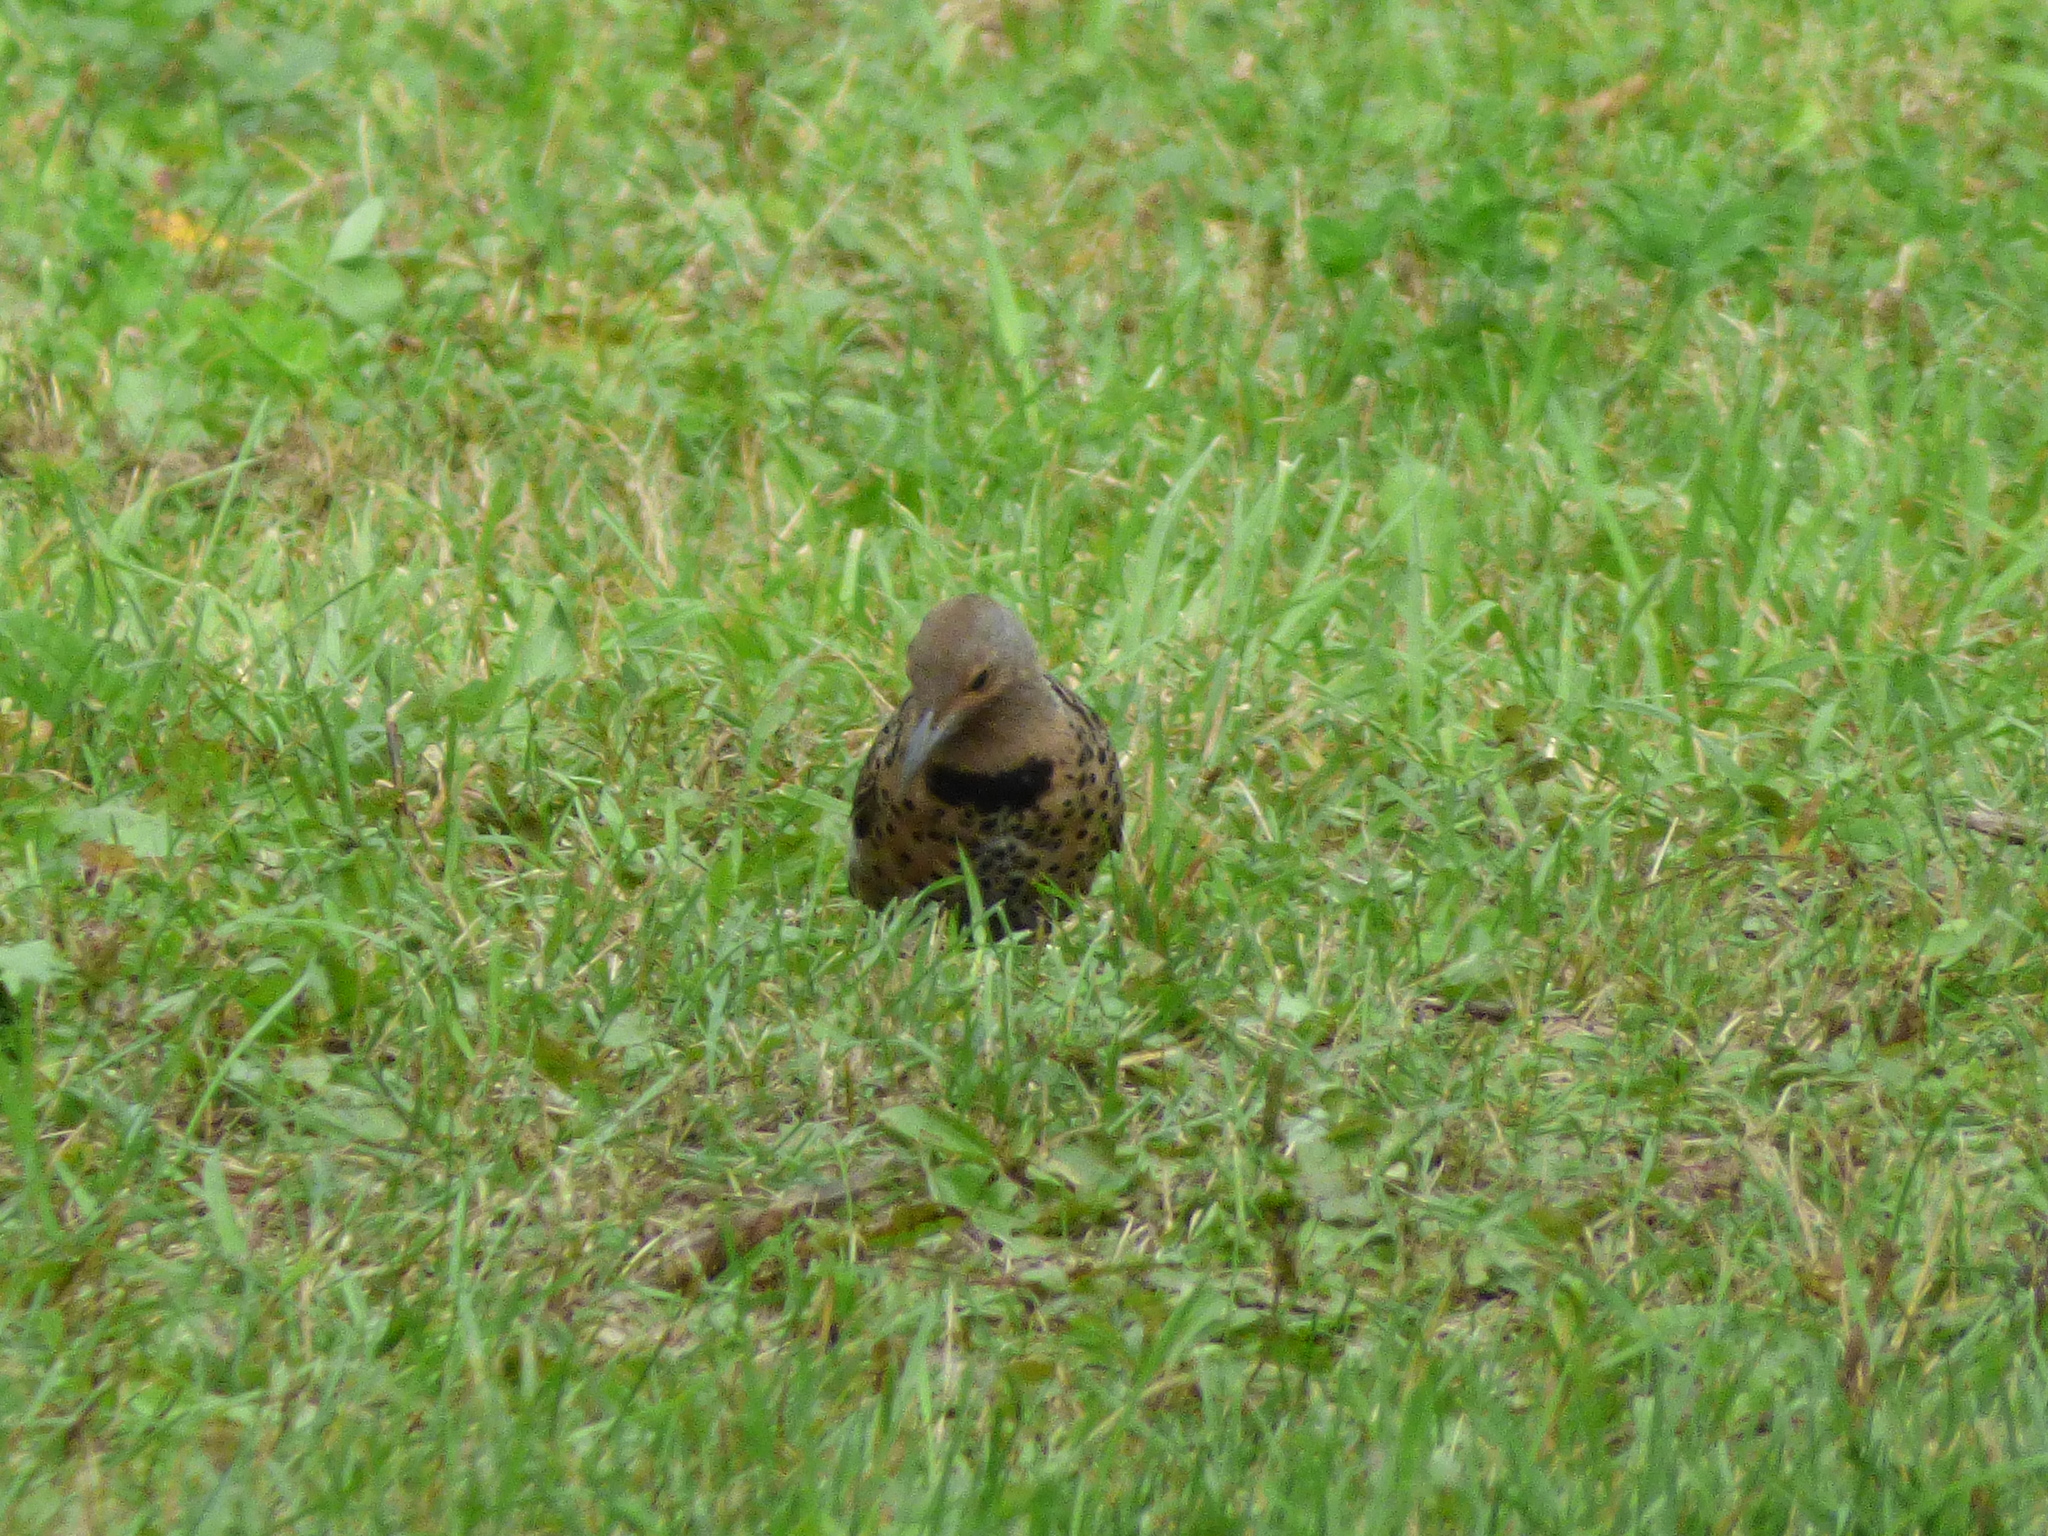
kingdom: Animalia
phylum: Chordata
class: Aves
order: Piciformes
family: Picidae
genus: Colaptes
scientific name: Colaptes auratus
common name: Northern flicker
